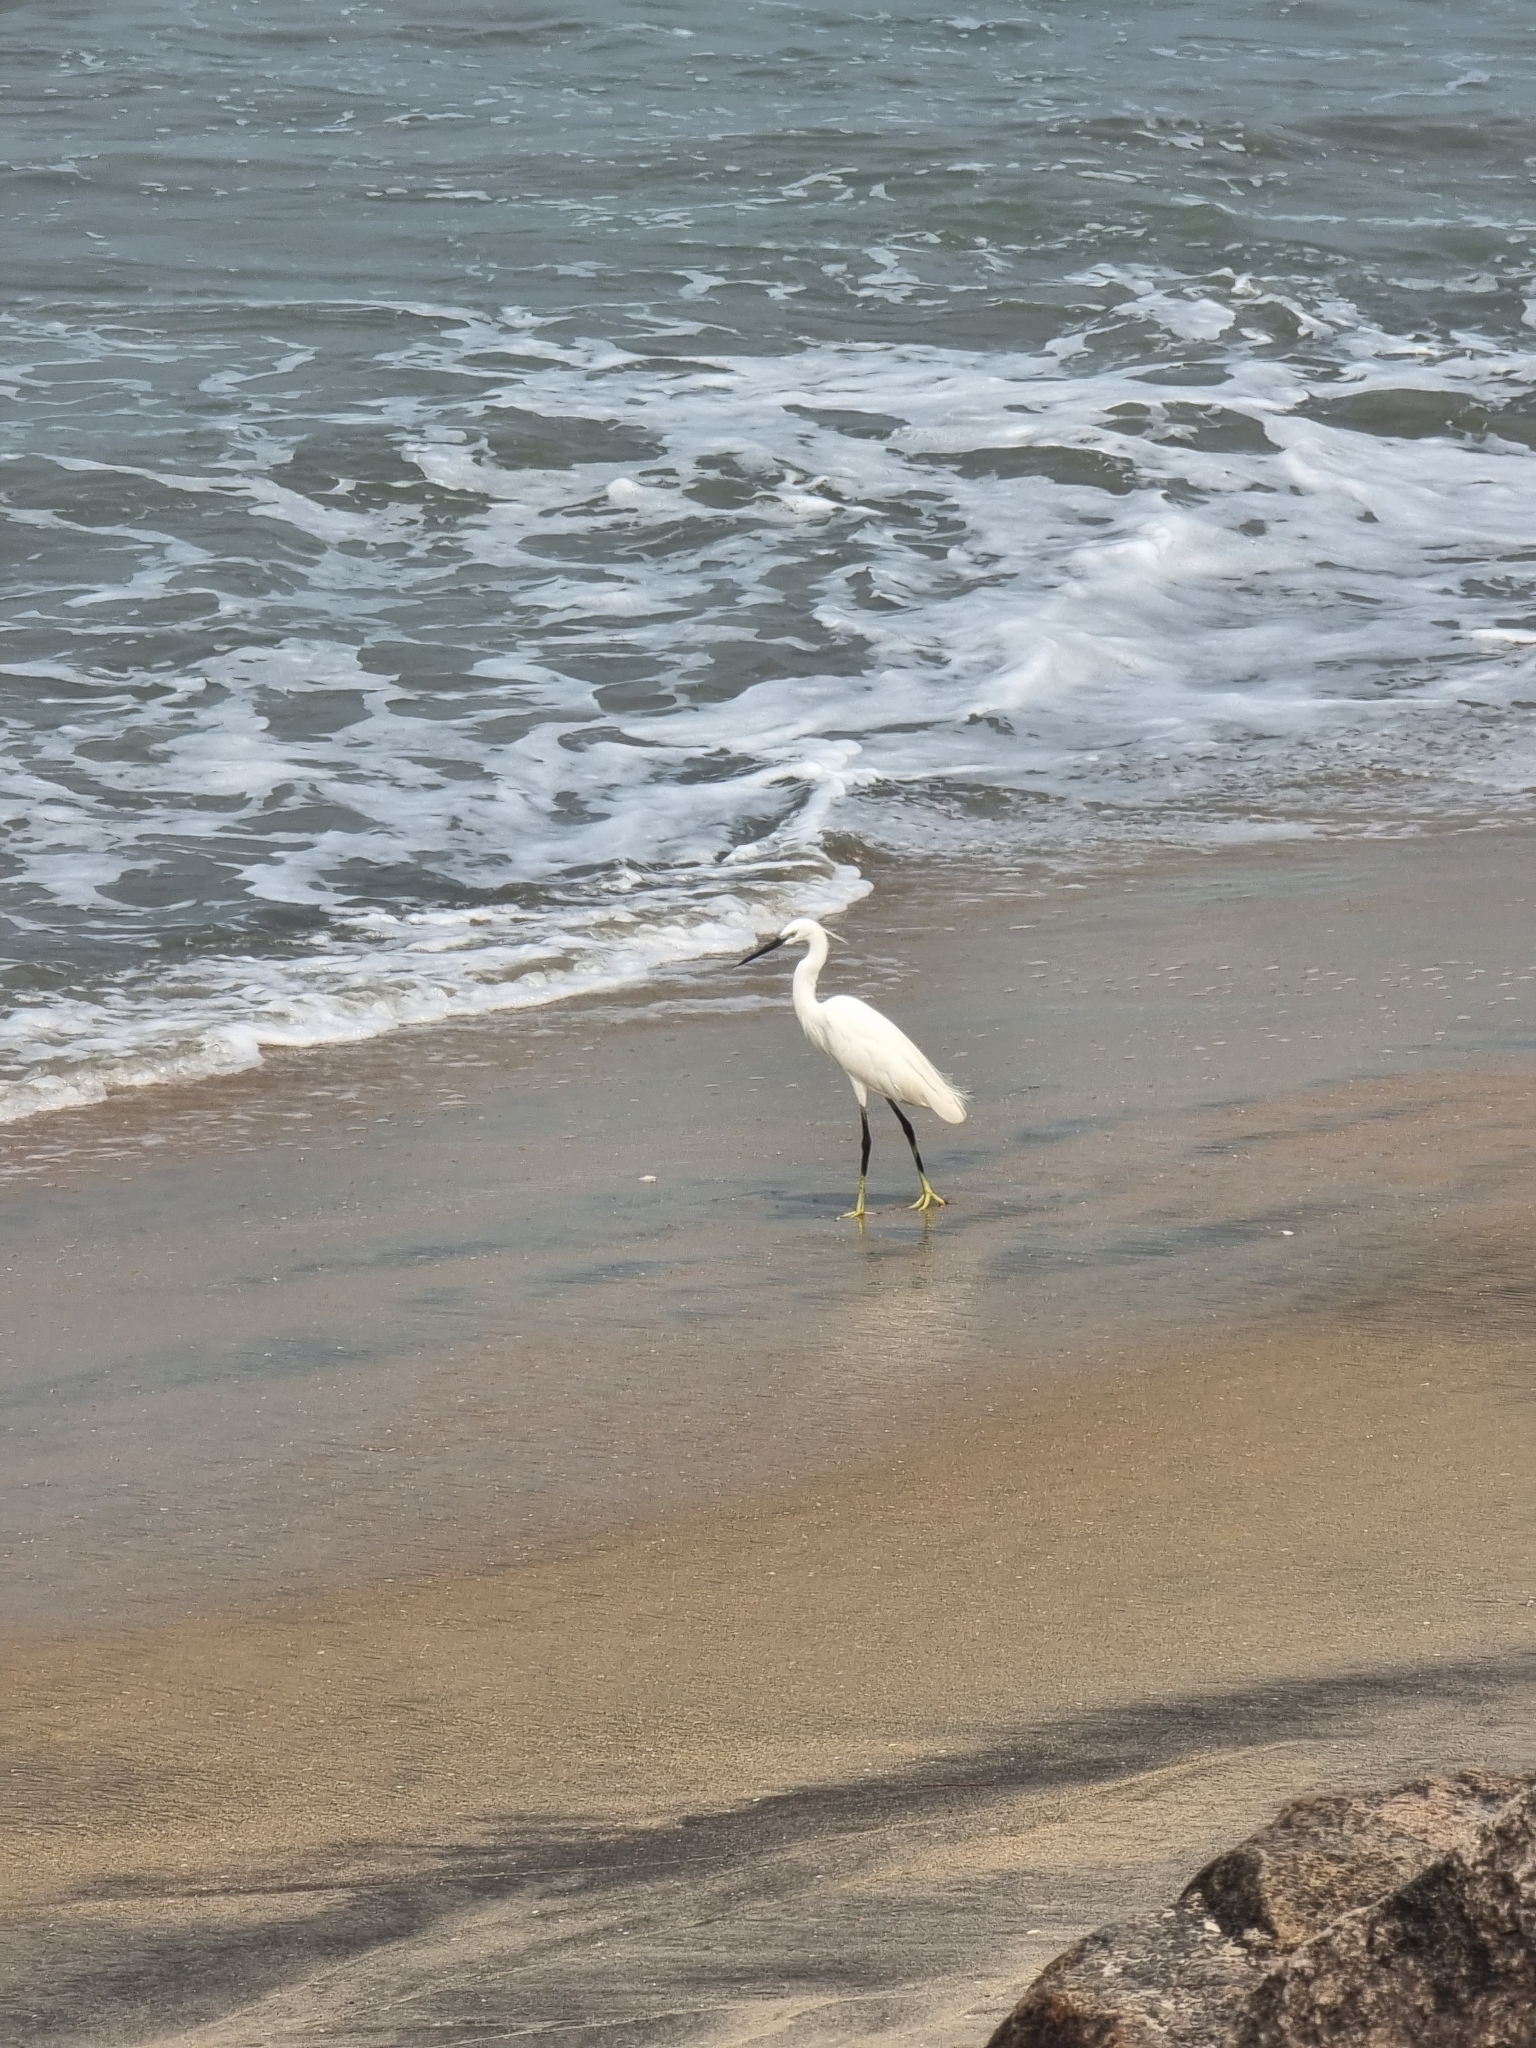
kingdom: Animalia
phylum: Chordata
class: Aves
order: Pelecaniformes
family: Ardeidae
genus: Egretta
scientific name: Egretta garzetta
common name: Little egret
